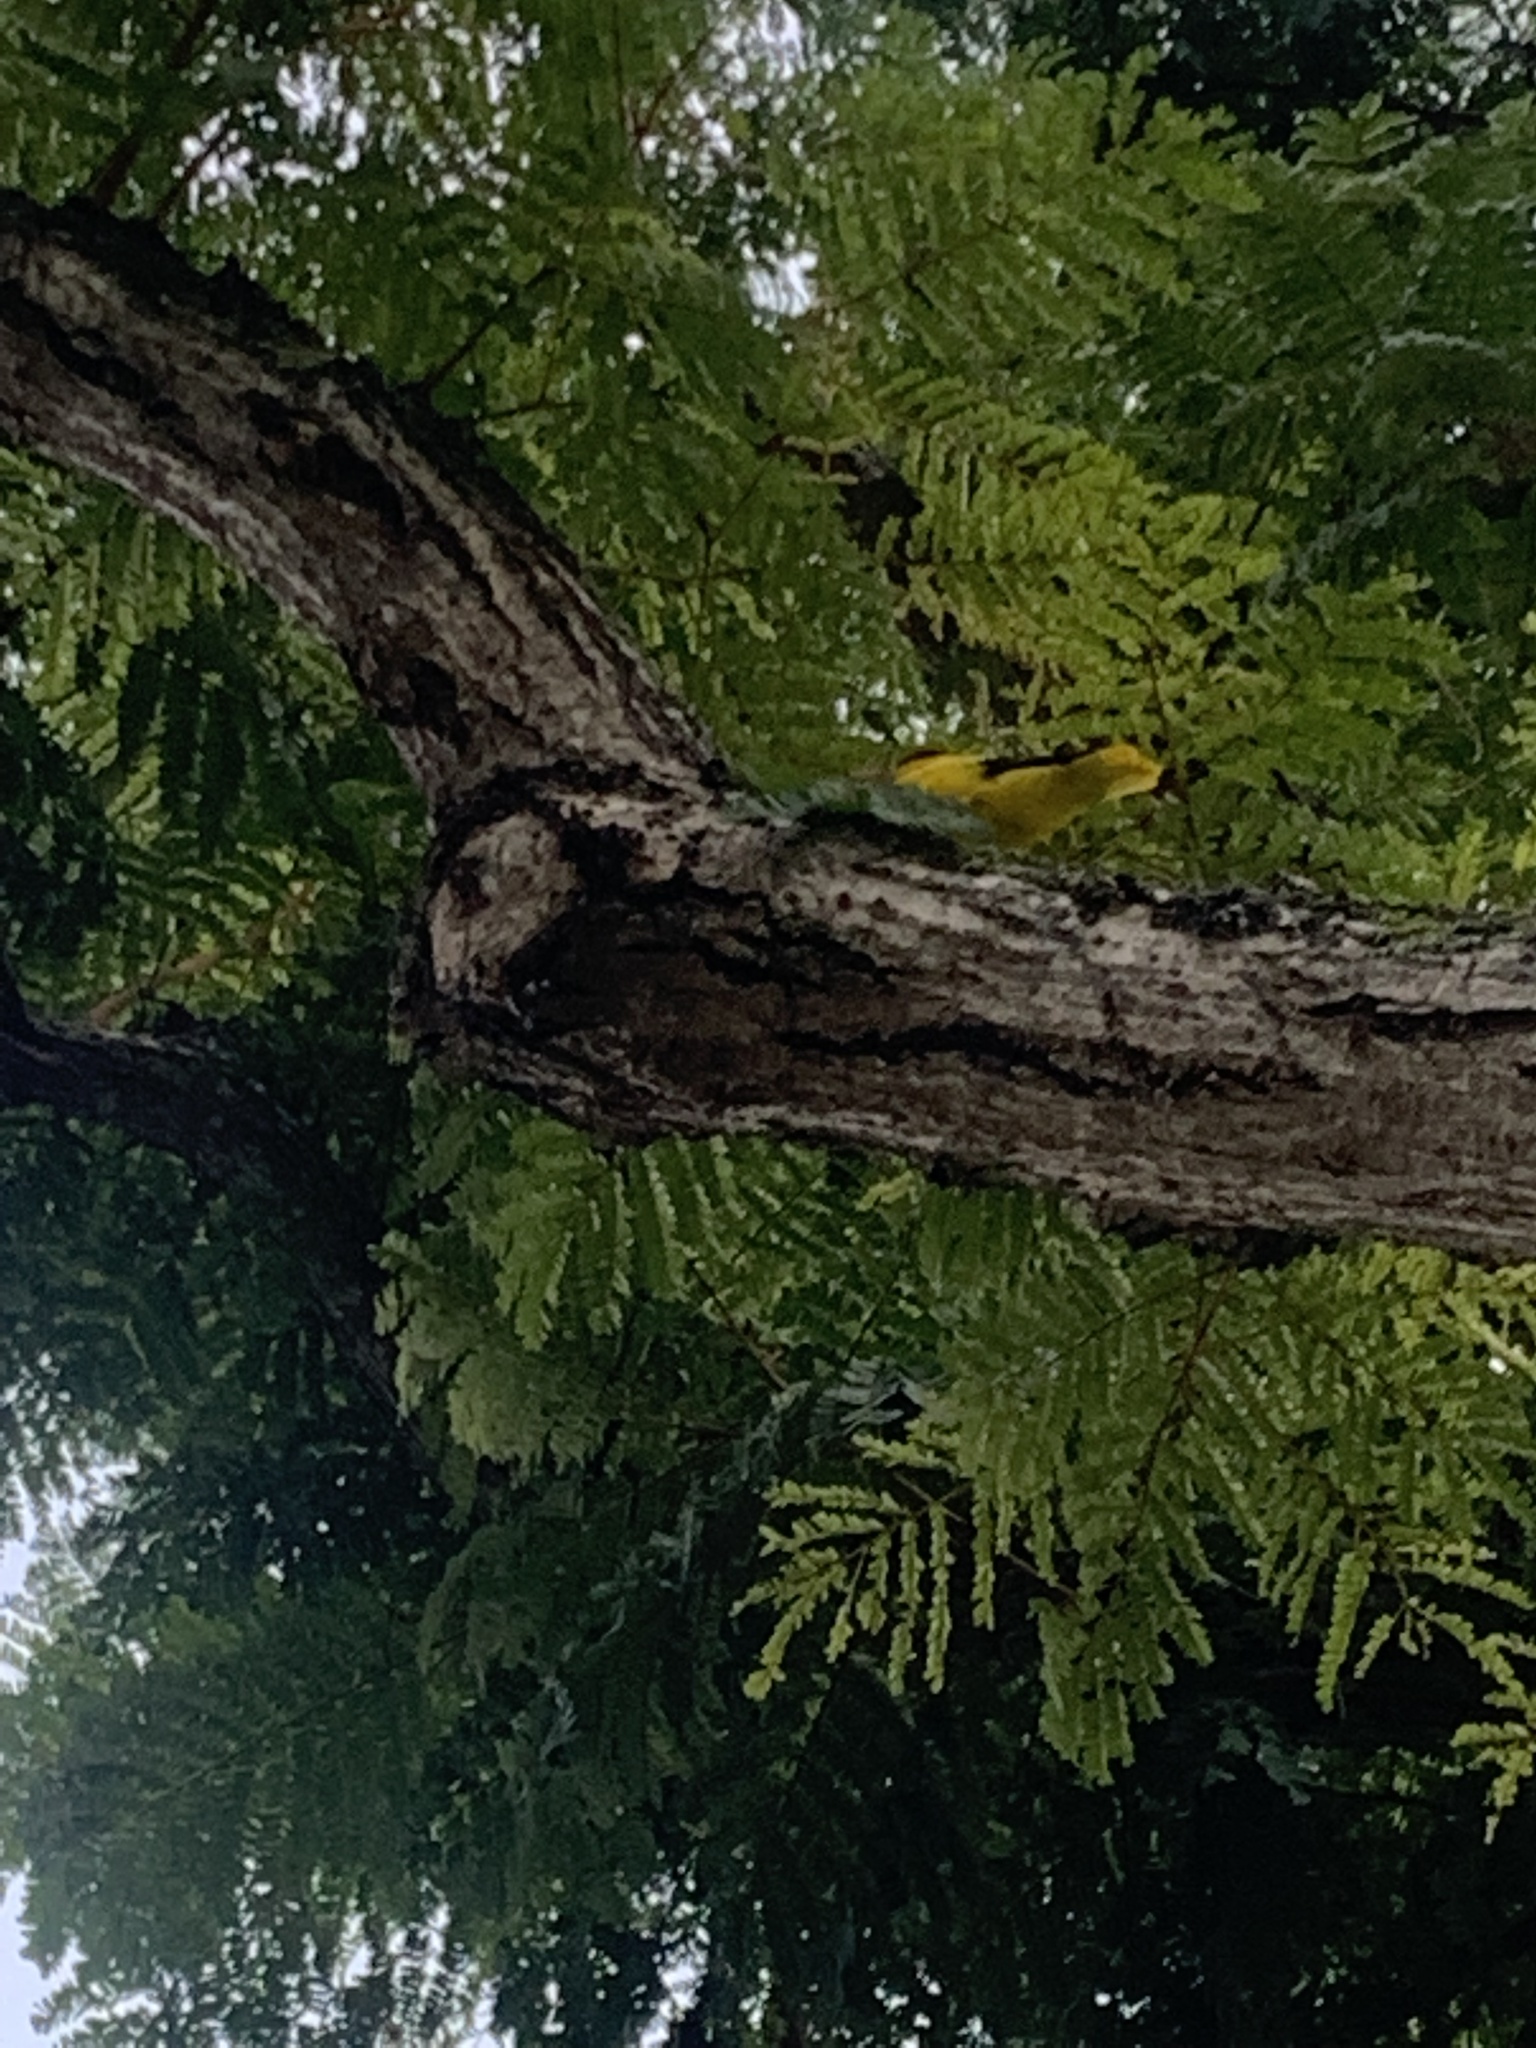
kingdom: Animalia
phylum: Chordata
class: Aves
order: Passeriformes
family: Oriolidae
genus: Oriolus
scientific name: Oriolus chinensis
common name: Black-naped oriole
